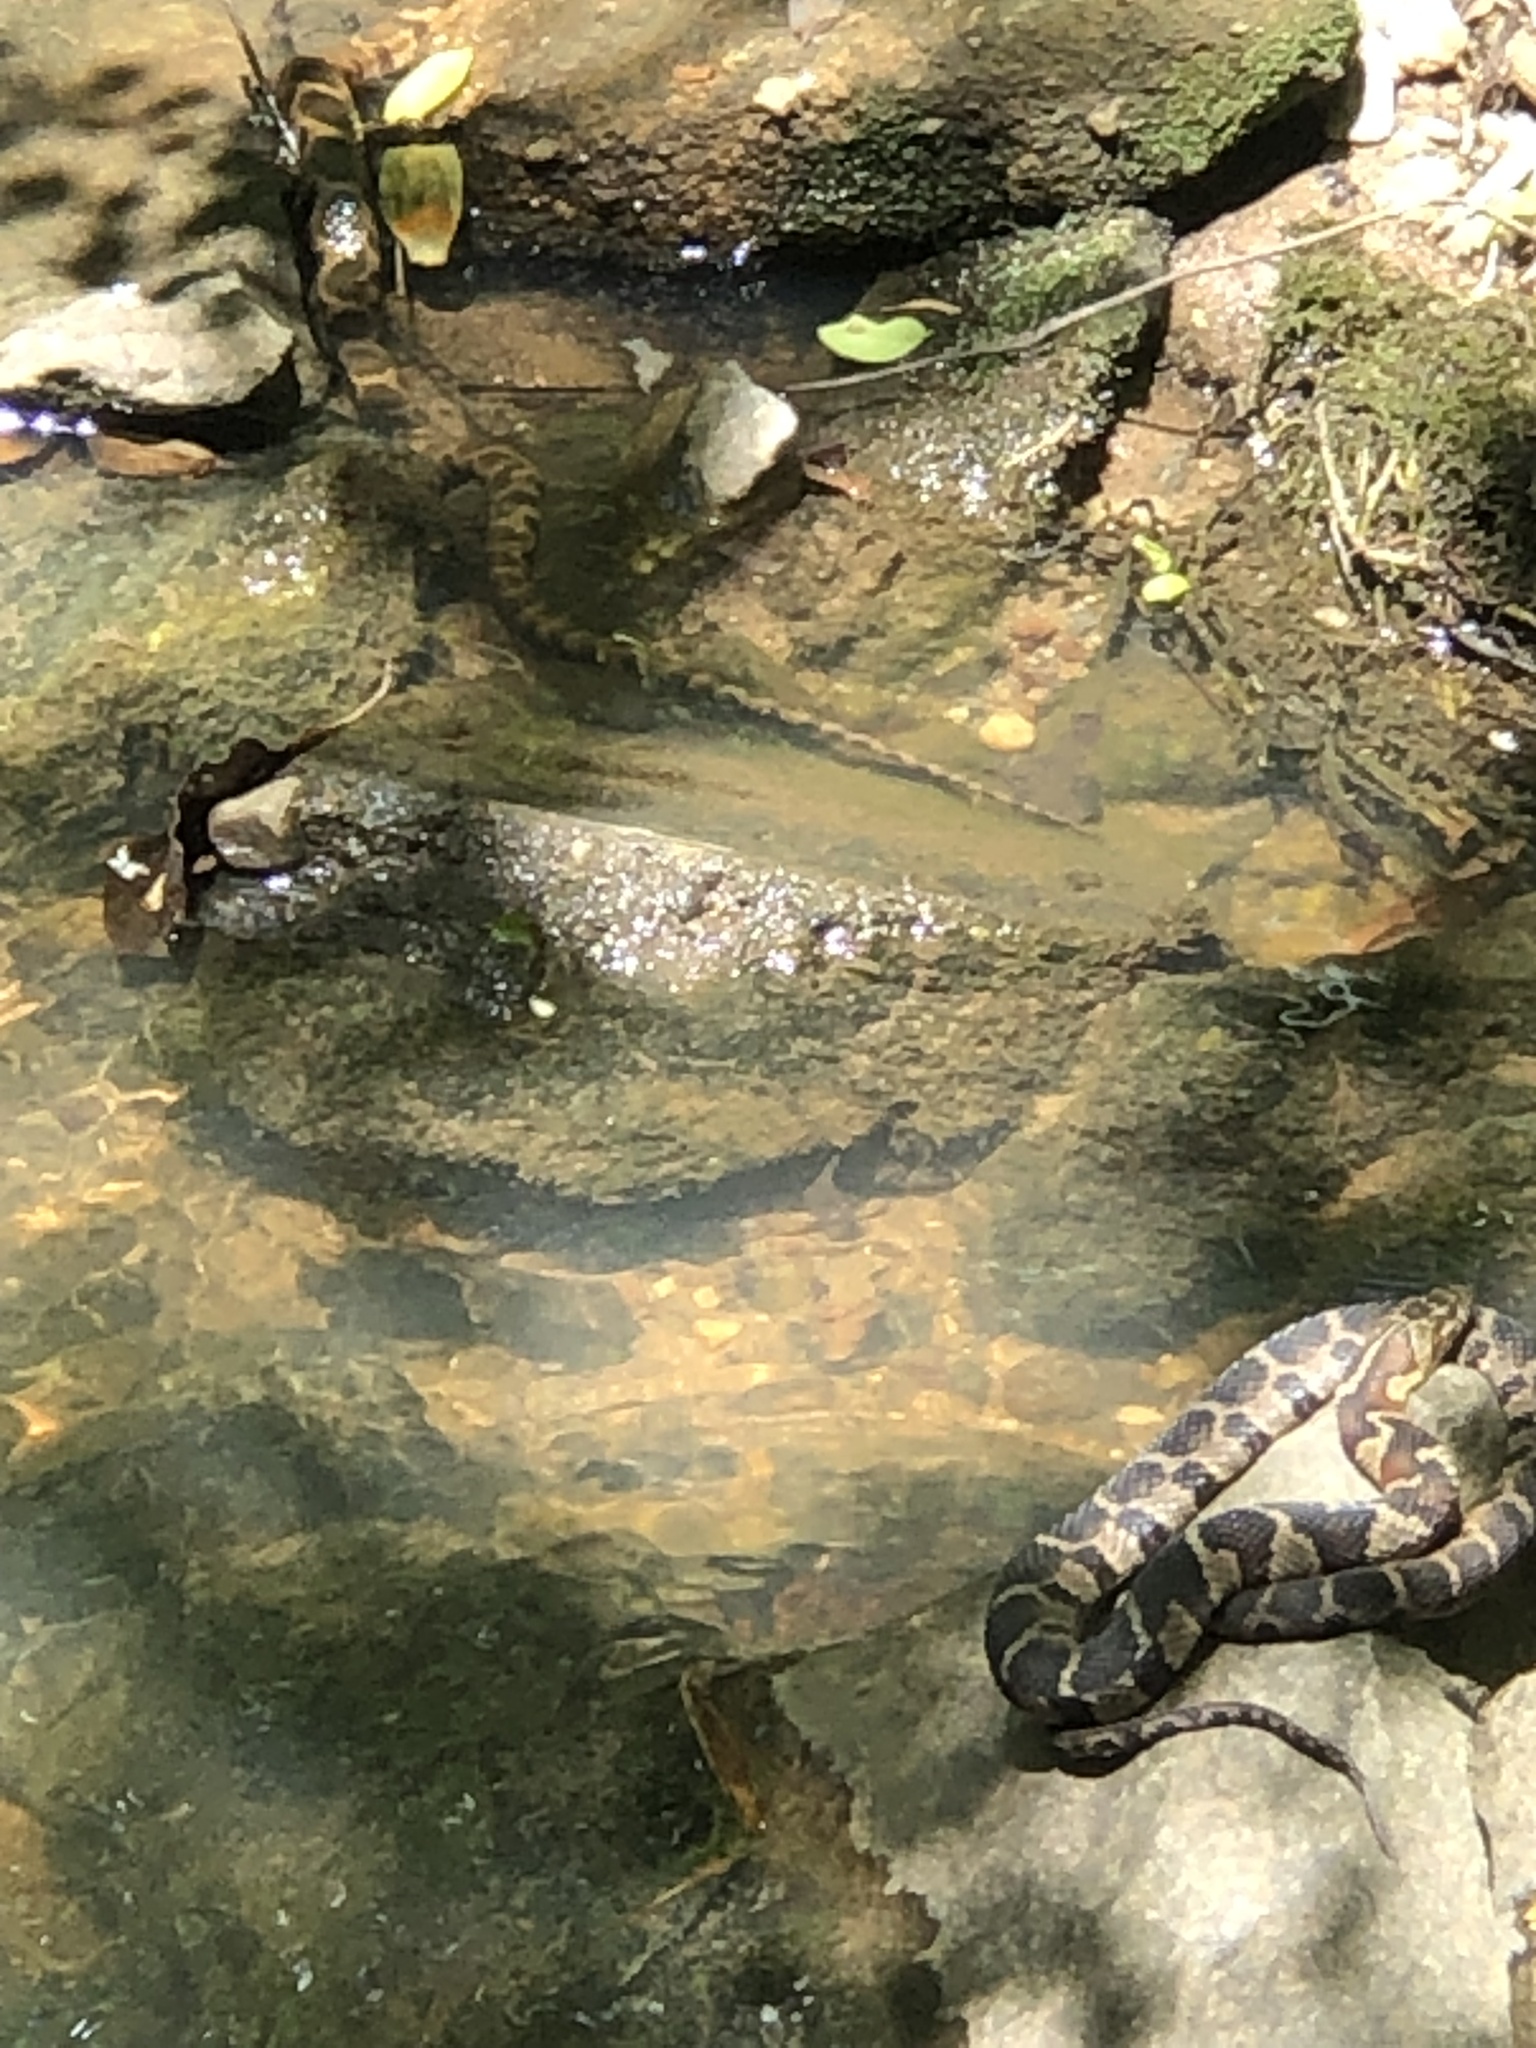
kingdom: Animalia
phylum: Chordata
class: Squamata
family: Colubridae
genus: Nerodia
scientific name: Nerodia sipedon
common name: Northern water snake
